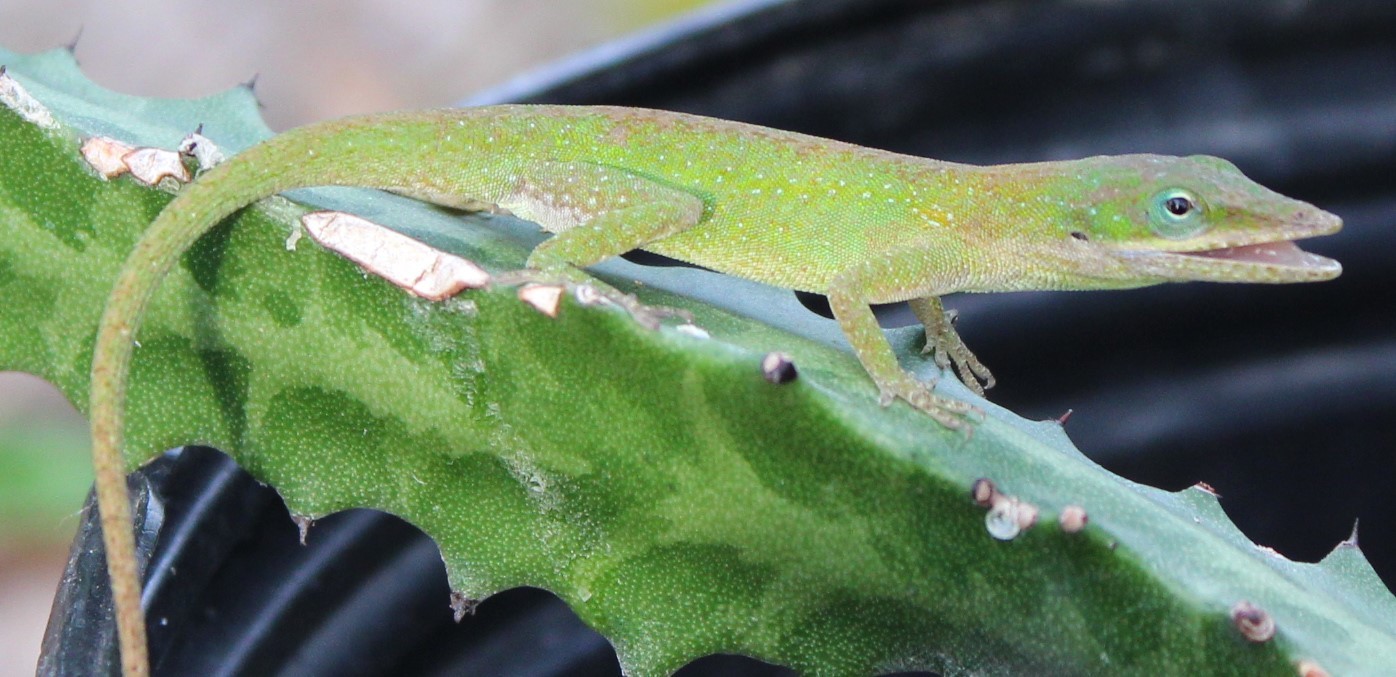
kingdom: Animalia
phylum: Chordata
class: Squamata
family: Dactyloidae
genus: Anolis
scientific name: Anolis carolinensis
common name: Green anole
